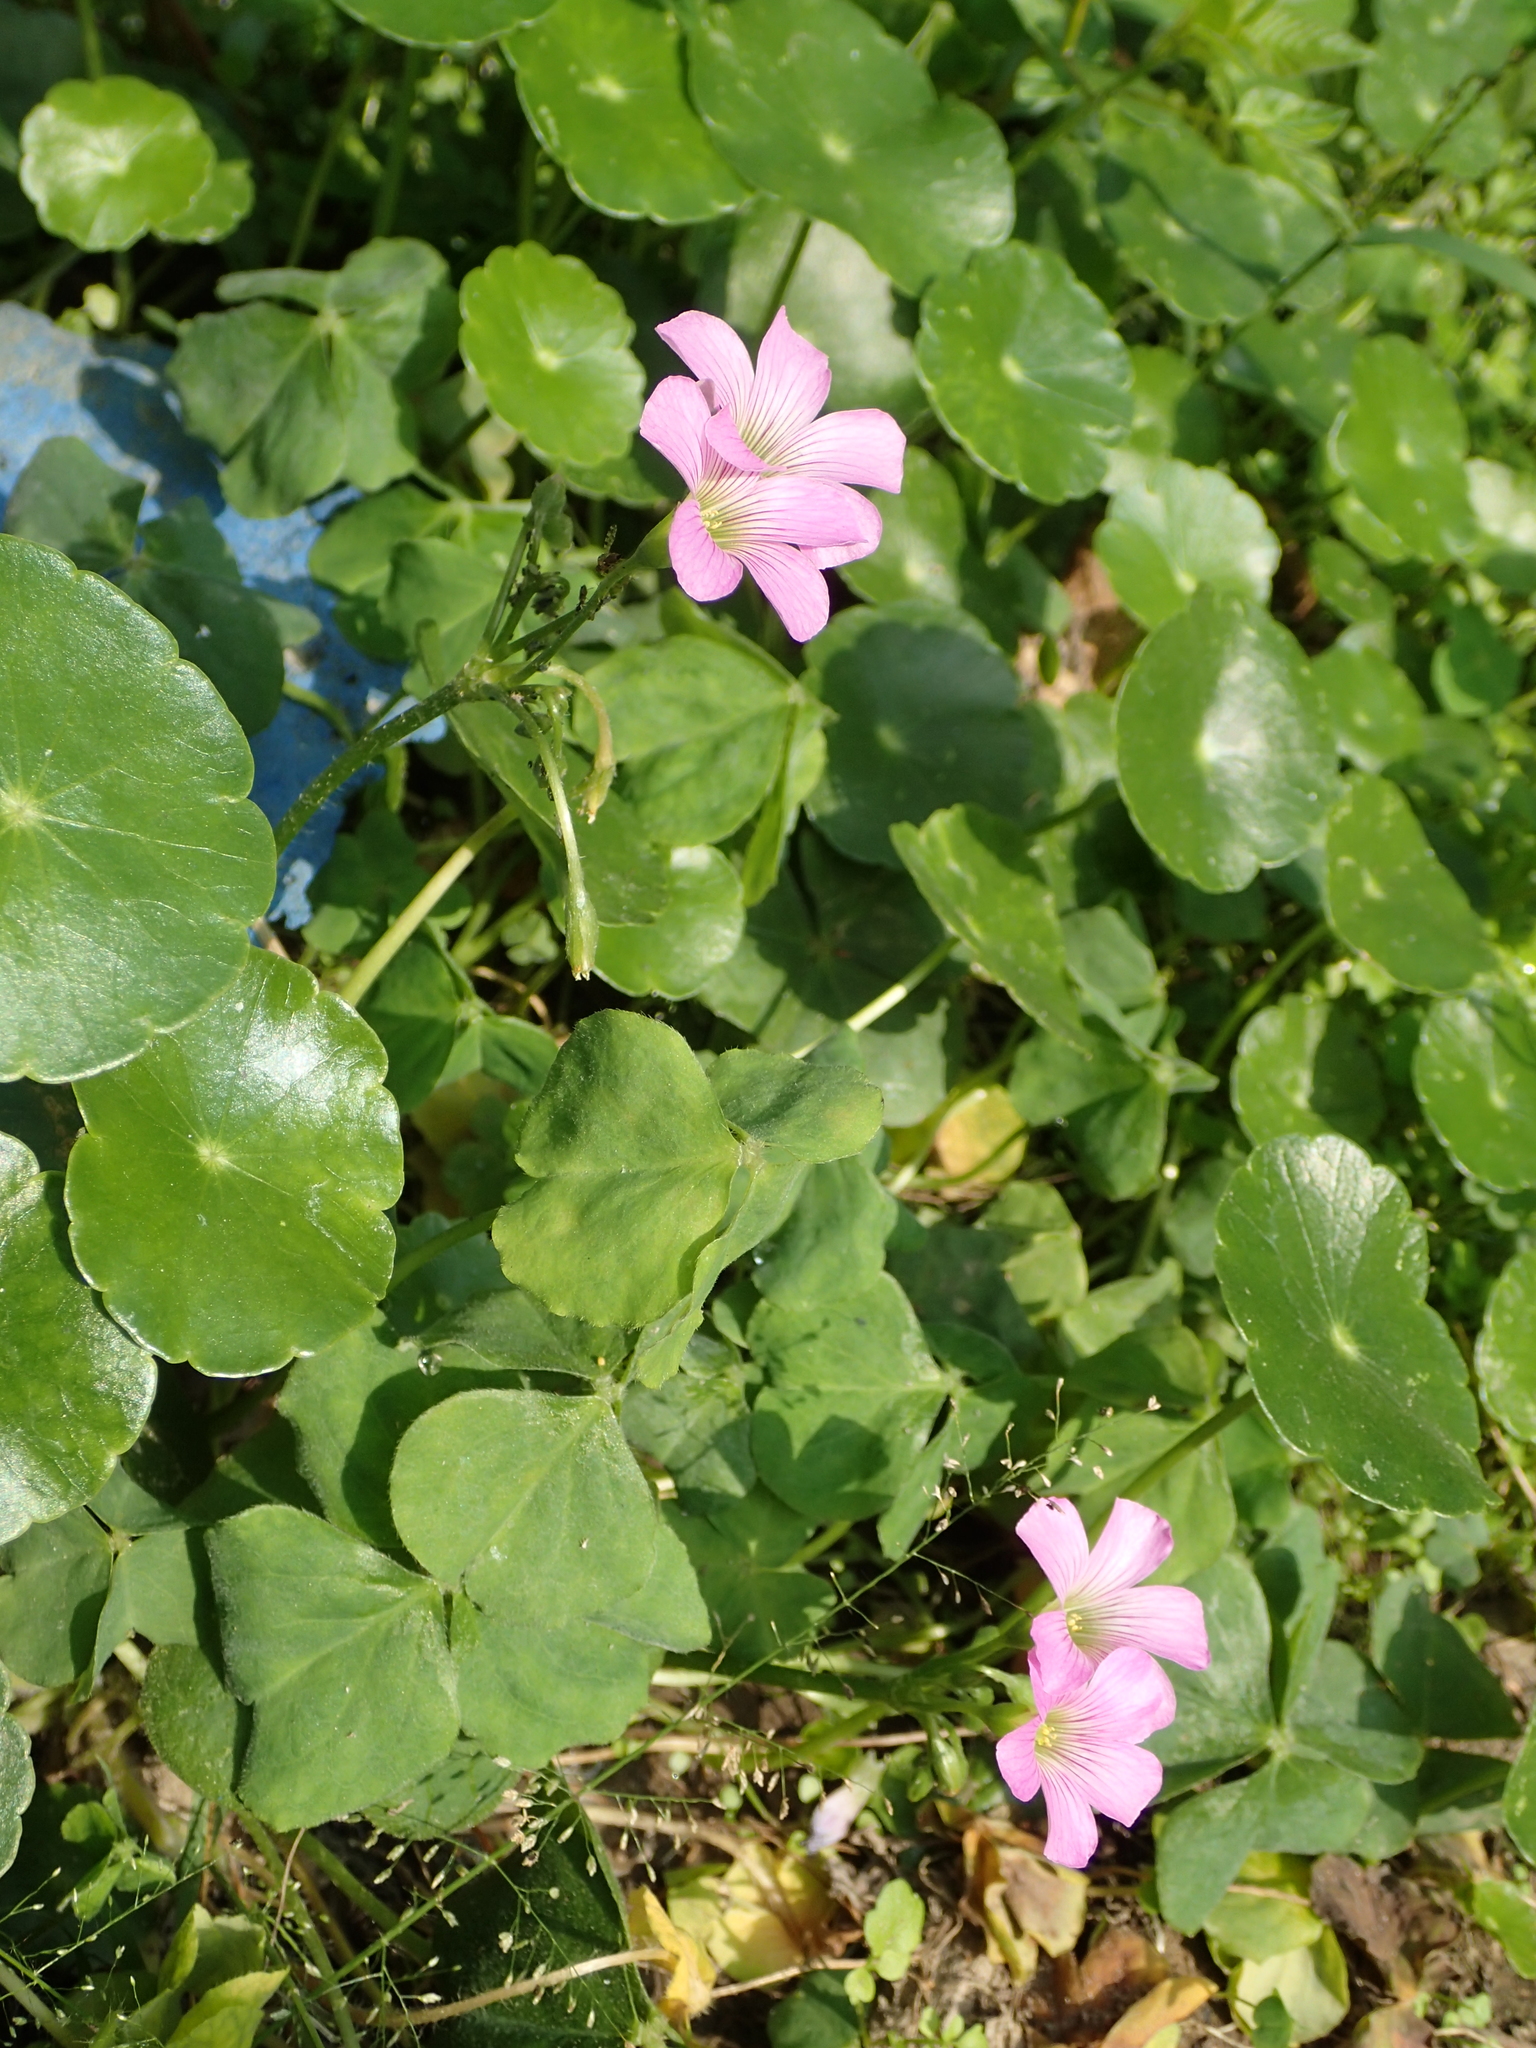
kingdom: Plantae
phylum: Tracheophyta
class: Magnoliopsida
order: Oxalidales
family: Oxalidaceae
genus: Oxalis
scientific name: Oxalis debilis
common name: Large-flowered pink-sorrel
